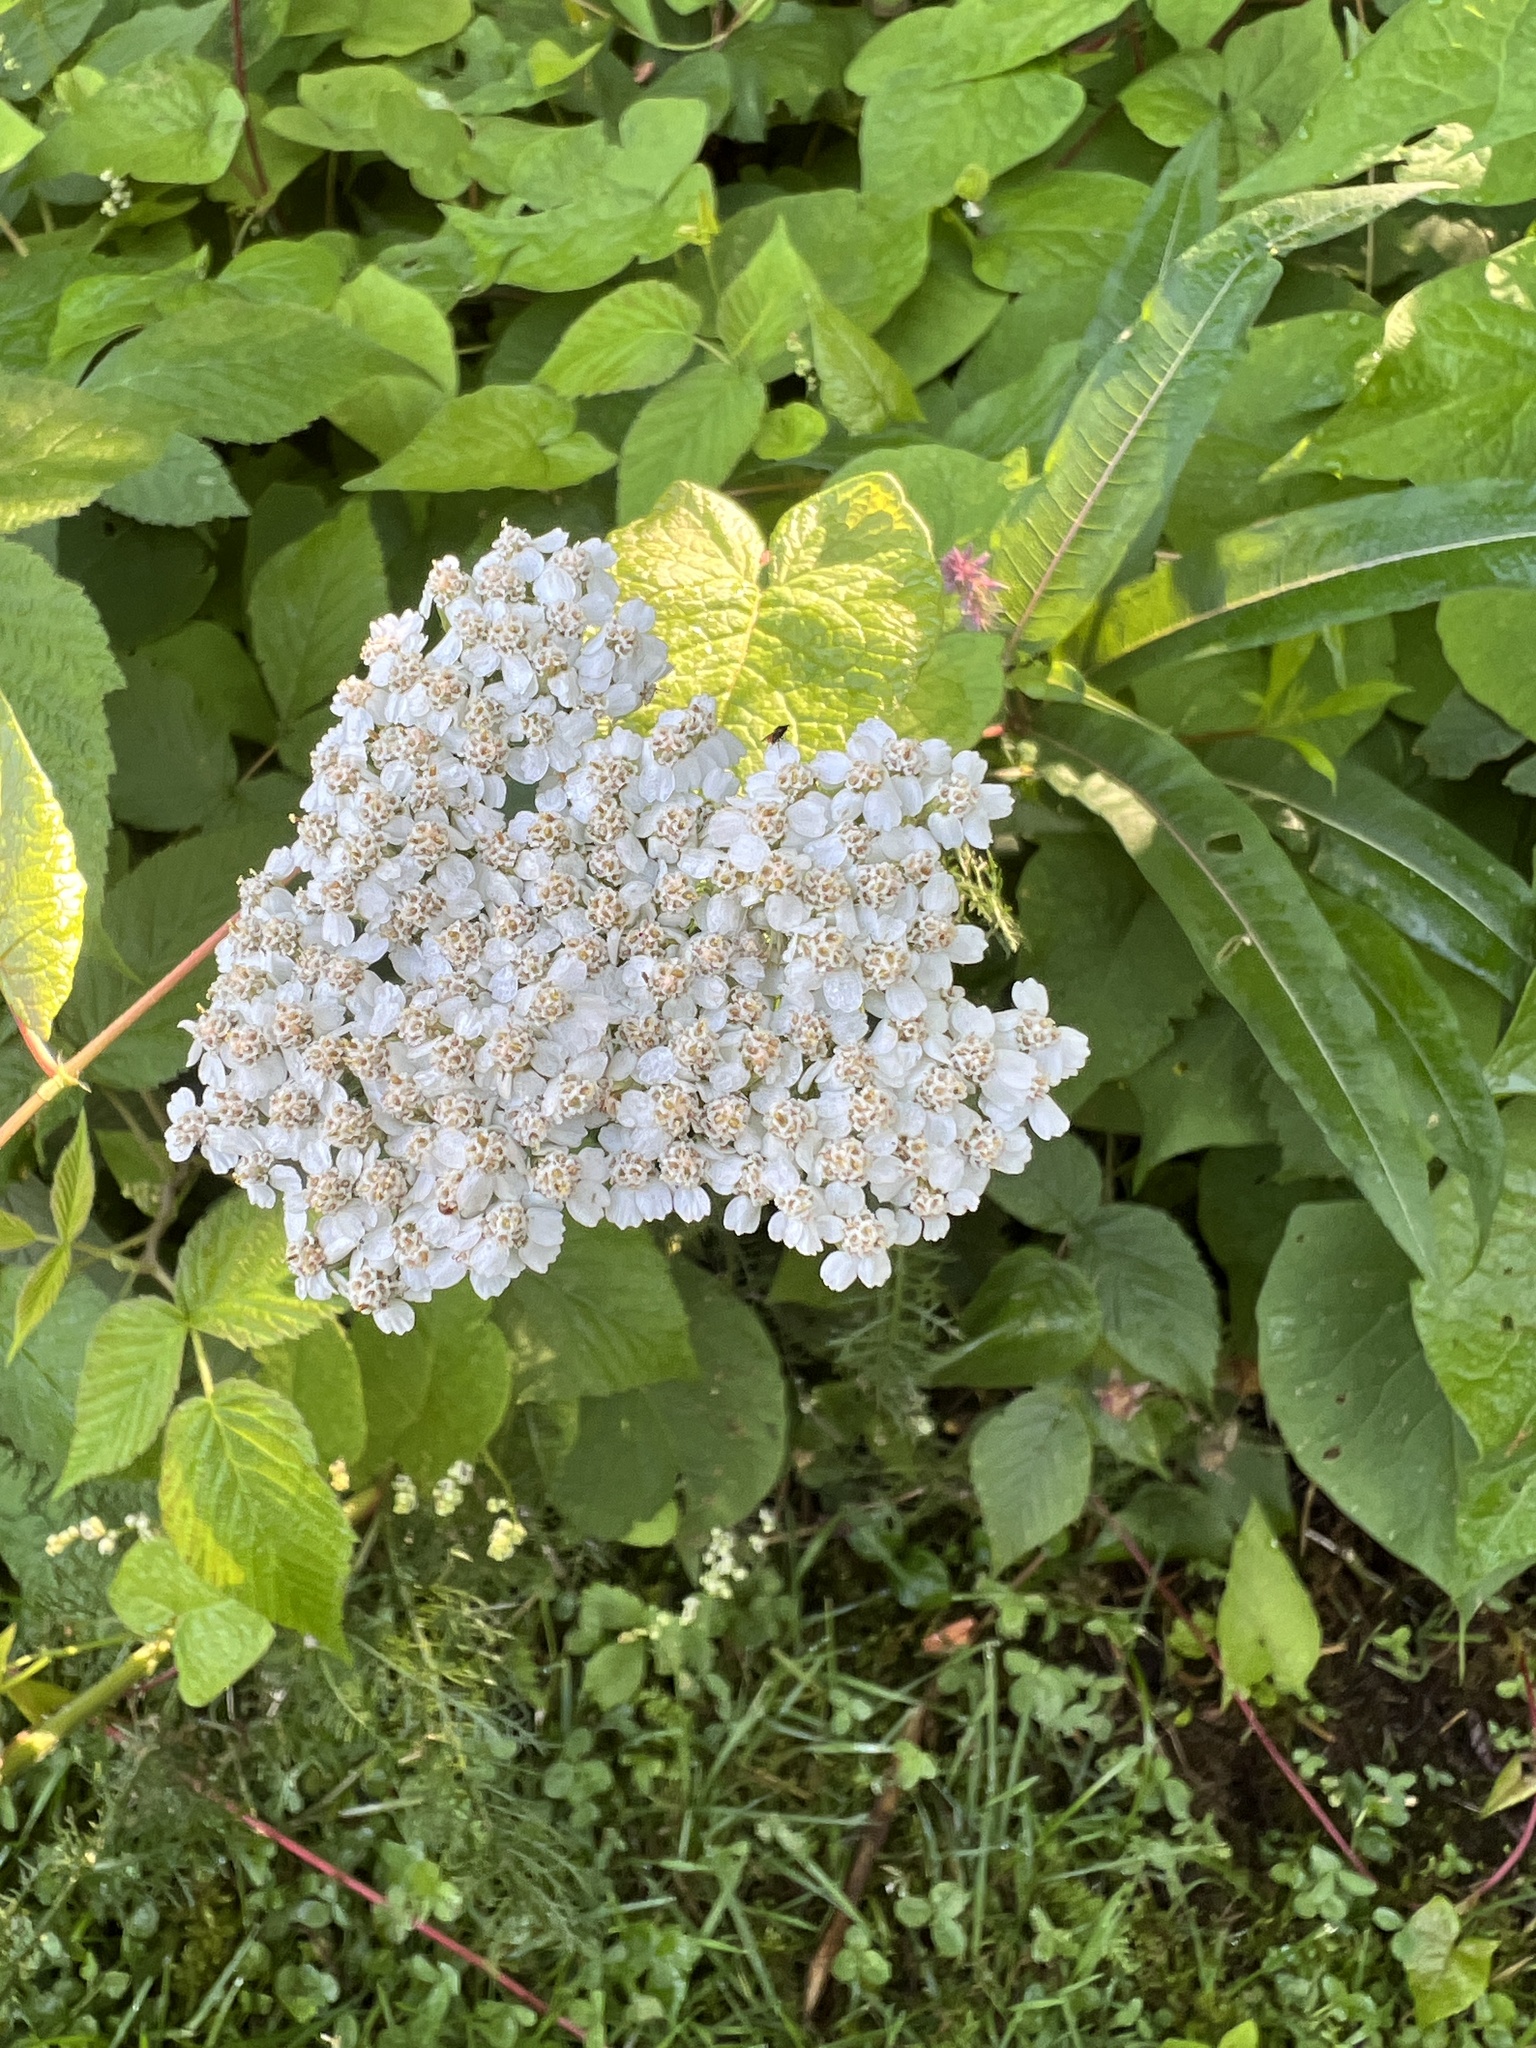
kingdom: Plantae
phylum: Tracheophyta
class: Magnoliopsida
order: Asterales
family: Asteraceae
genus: Achillea
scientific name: Achillea millefolium
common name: Yarrow
